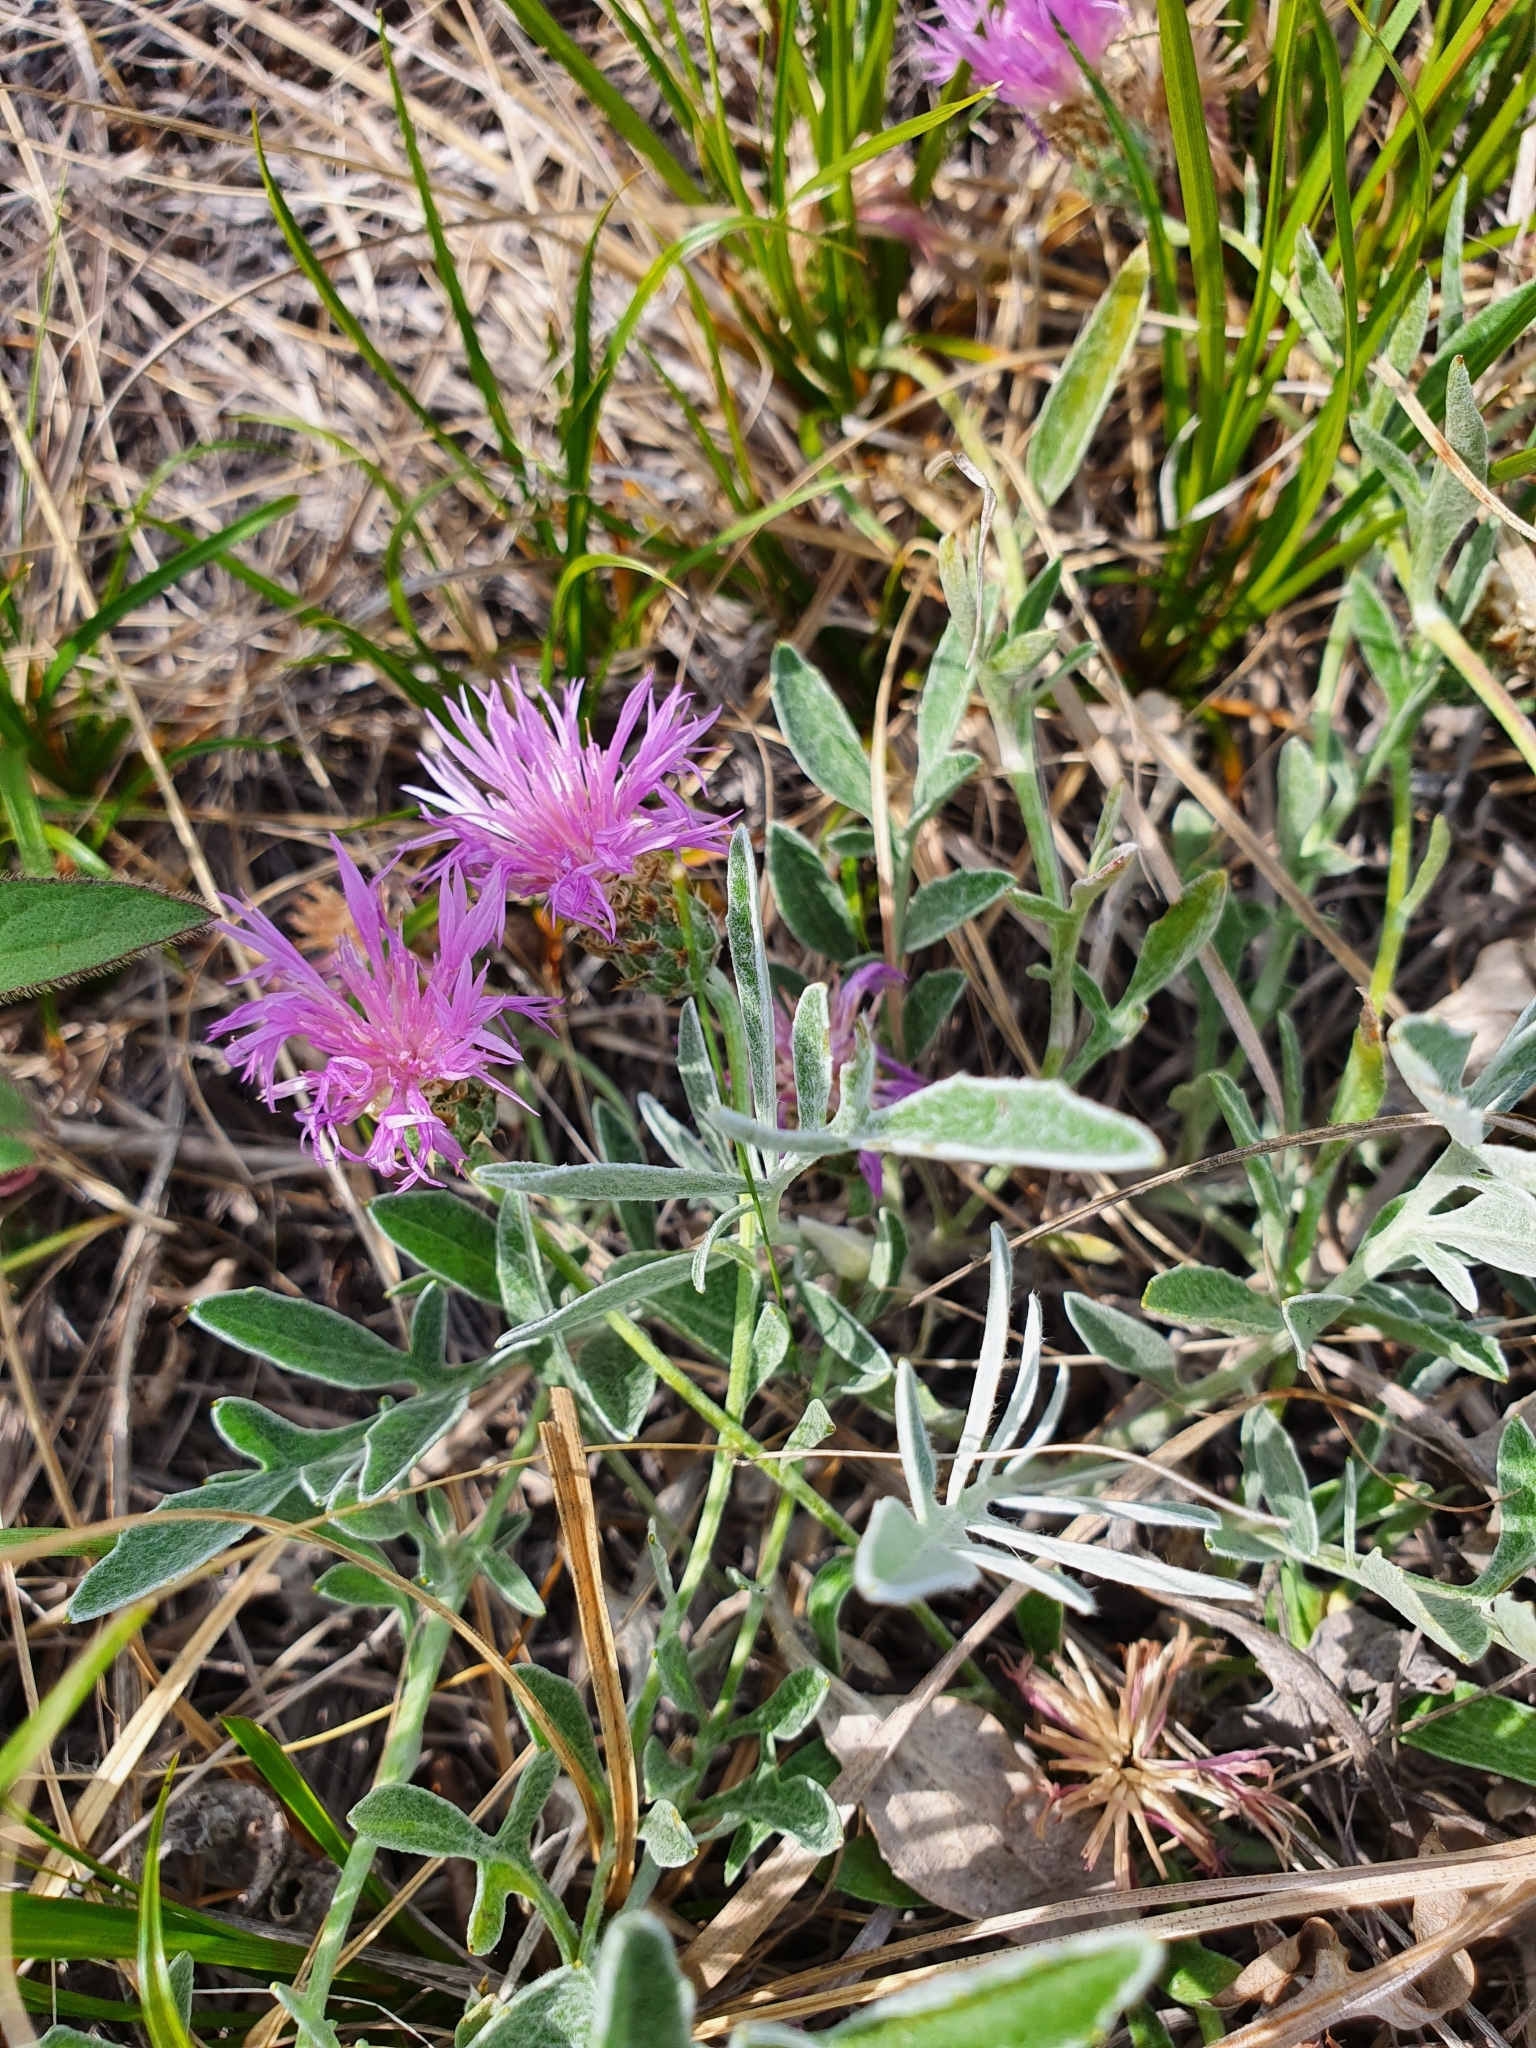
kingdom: Plantae
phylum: Tracheophyta
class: Magnoliopsida
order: Asterales
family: Asteraceae
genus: Psephellus
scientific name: Psephellus marschallianus
